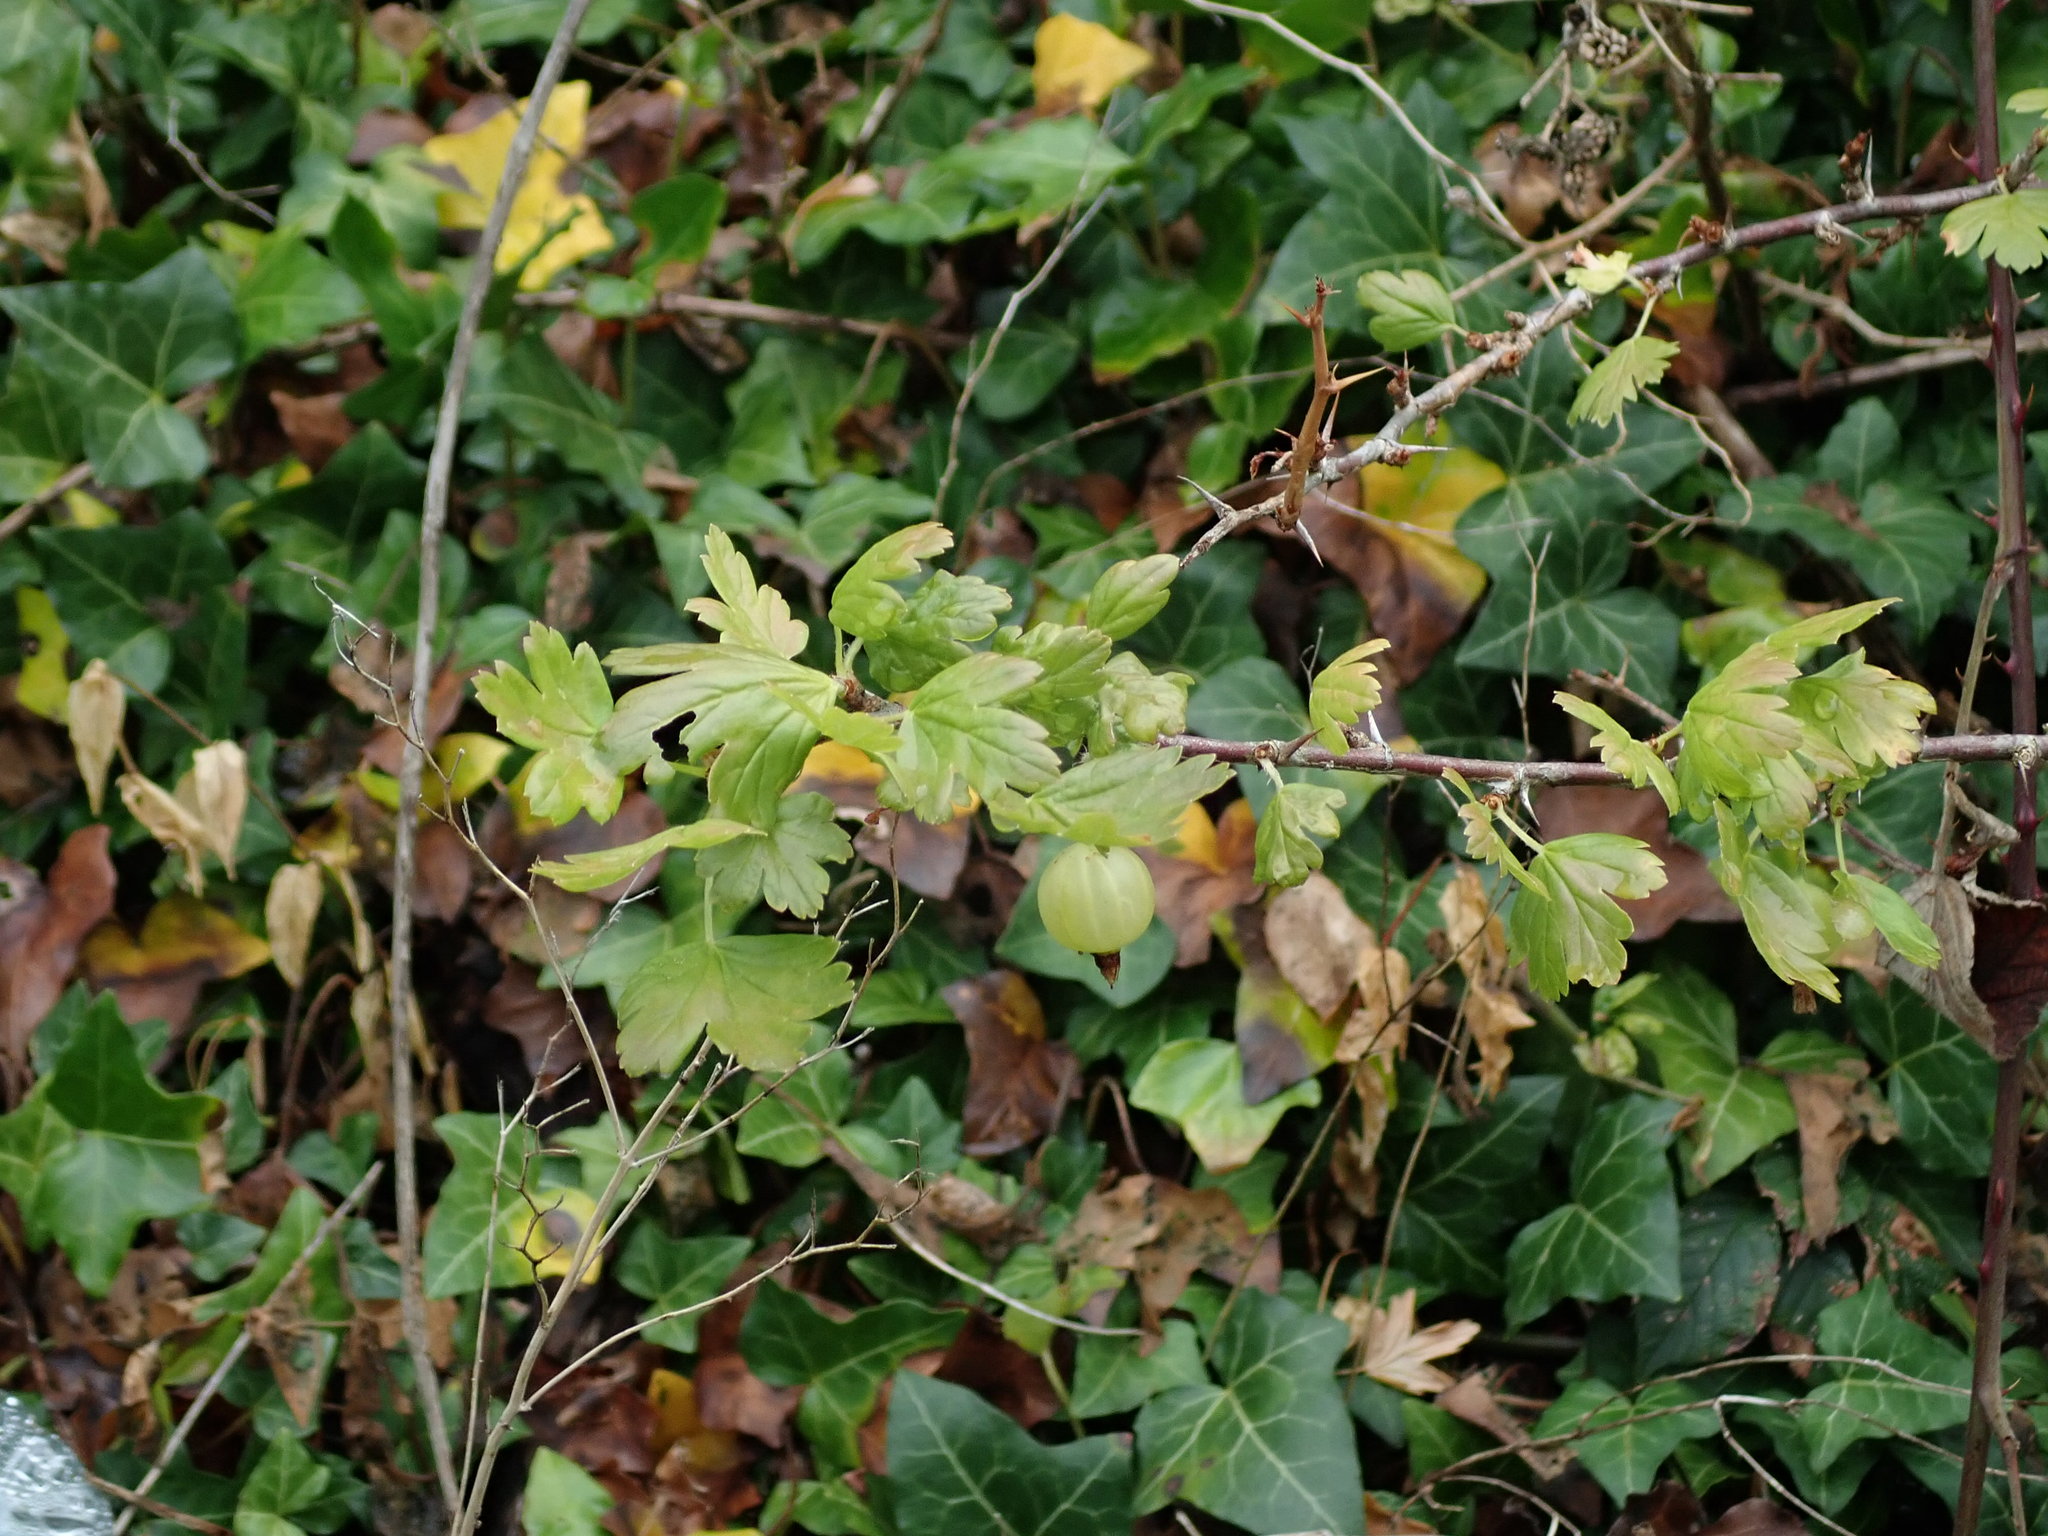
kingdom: Plantae
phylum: Tracheophyta
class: Magnoliopsida
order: Saxifragales
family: Grossulariaceae
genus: Ribes
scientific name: Ribes uva-crispa
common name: Gooseberry
